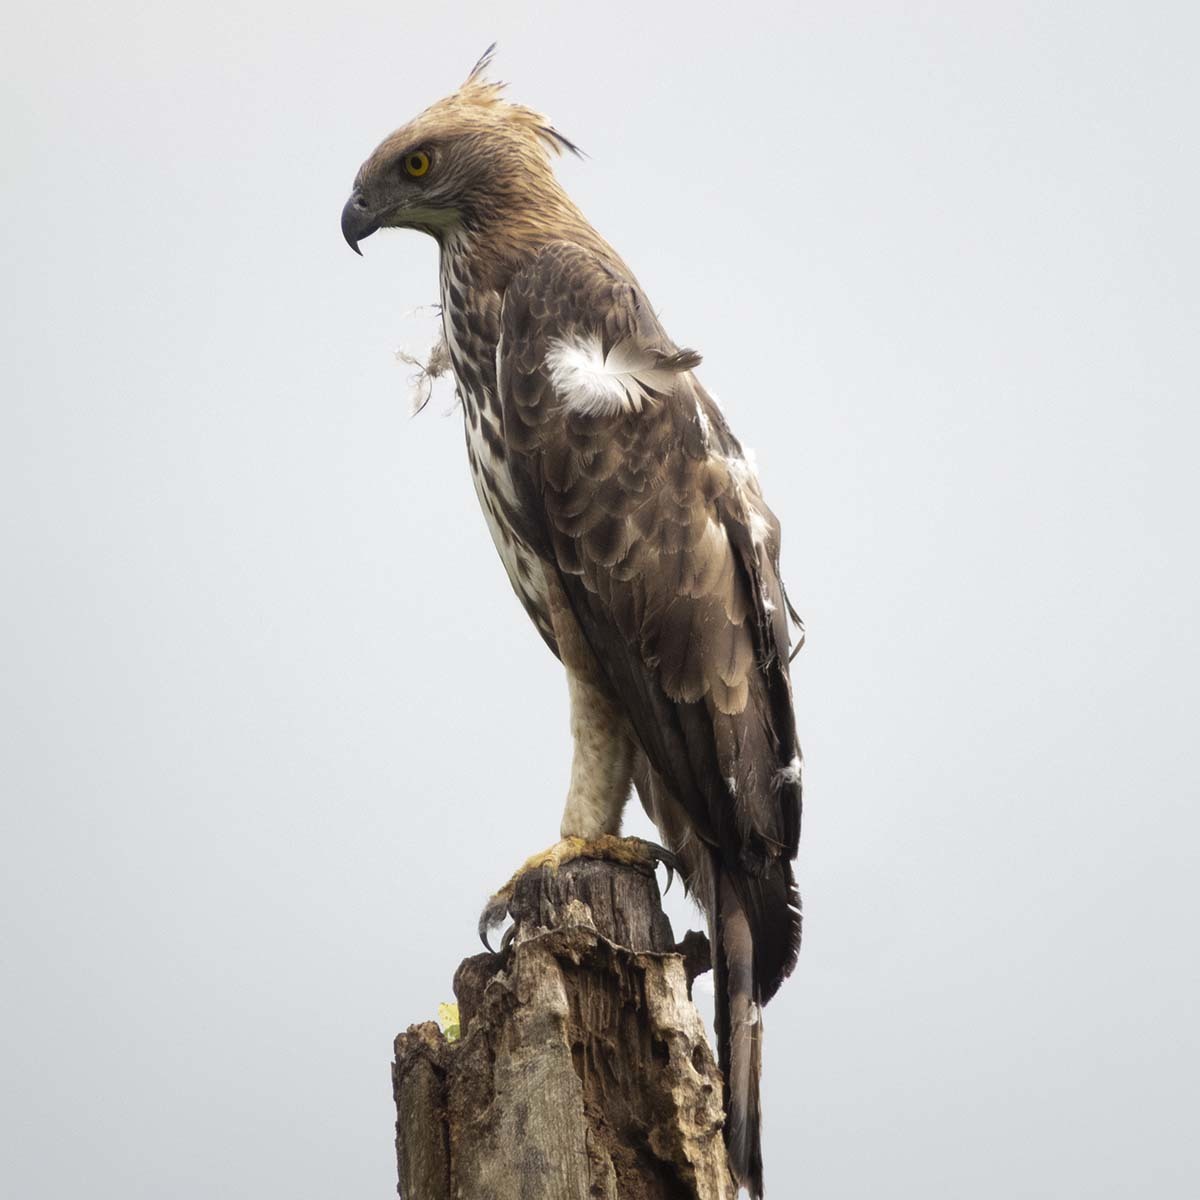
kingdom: Animalia
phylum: Chordata
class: Aves
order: Accipitriformes
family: Accipitridae
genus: Nisaetus
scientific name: Nisaetus cirrhatus
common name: Changeable hawk-eagle
